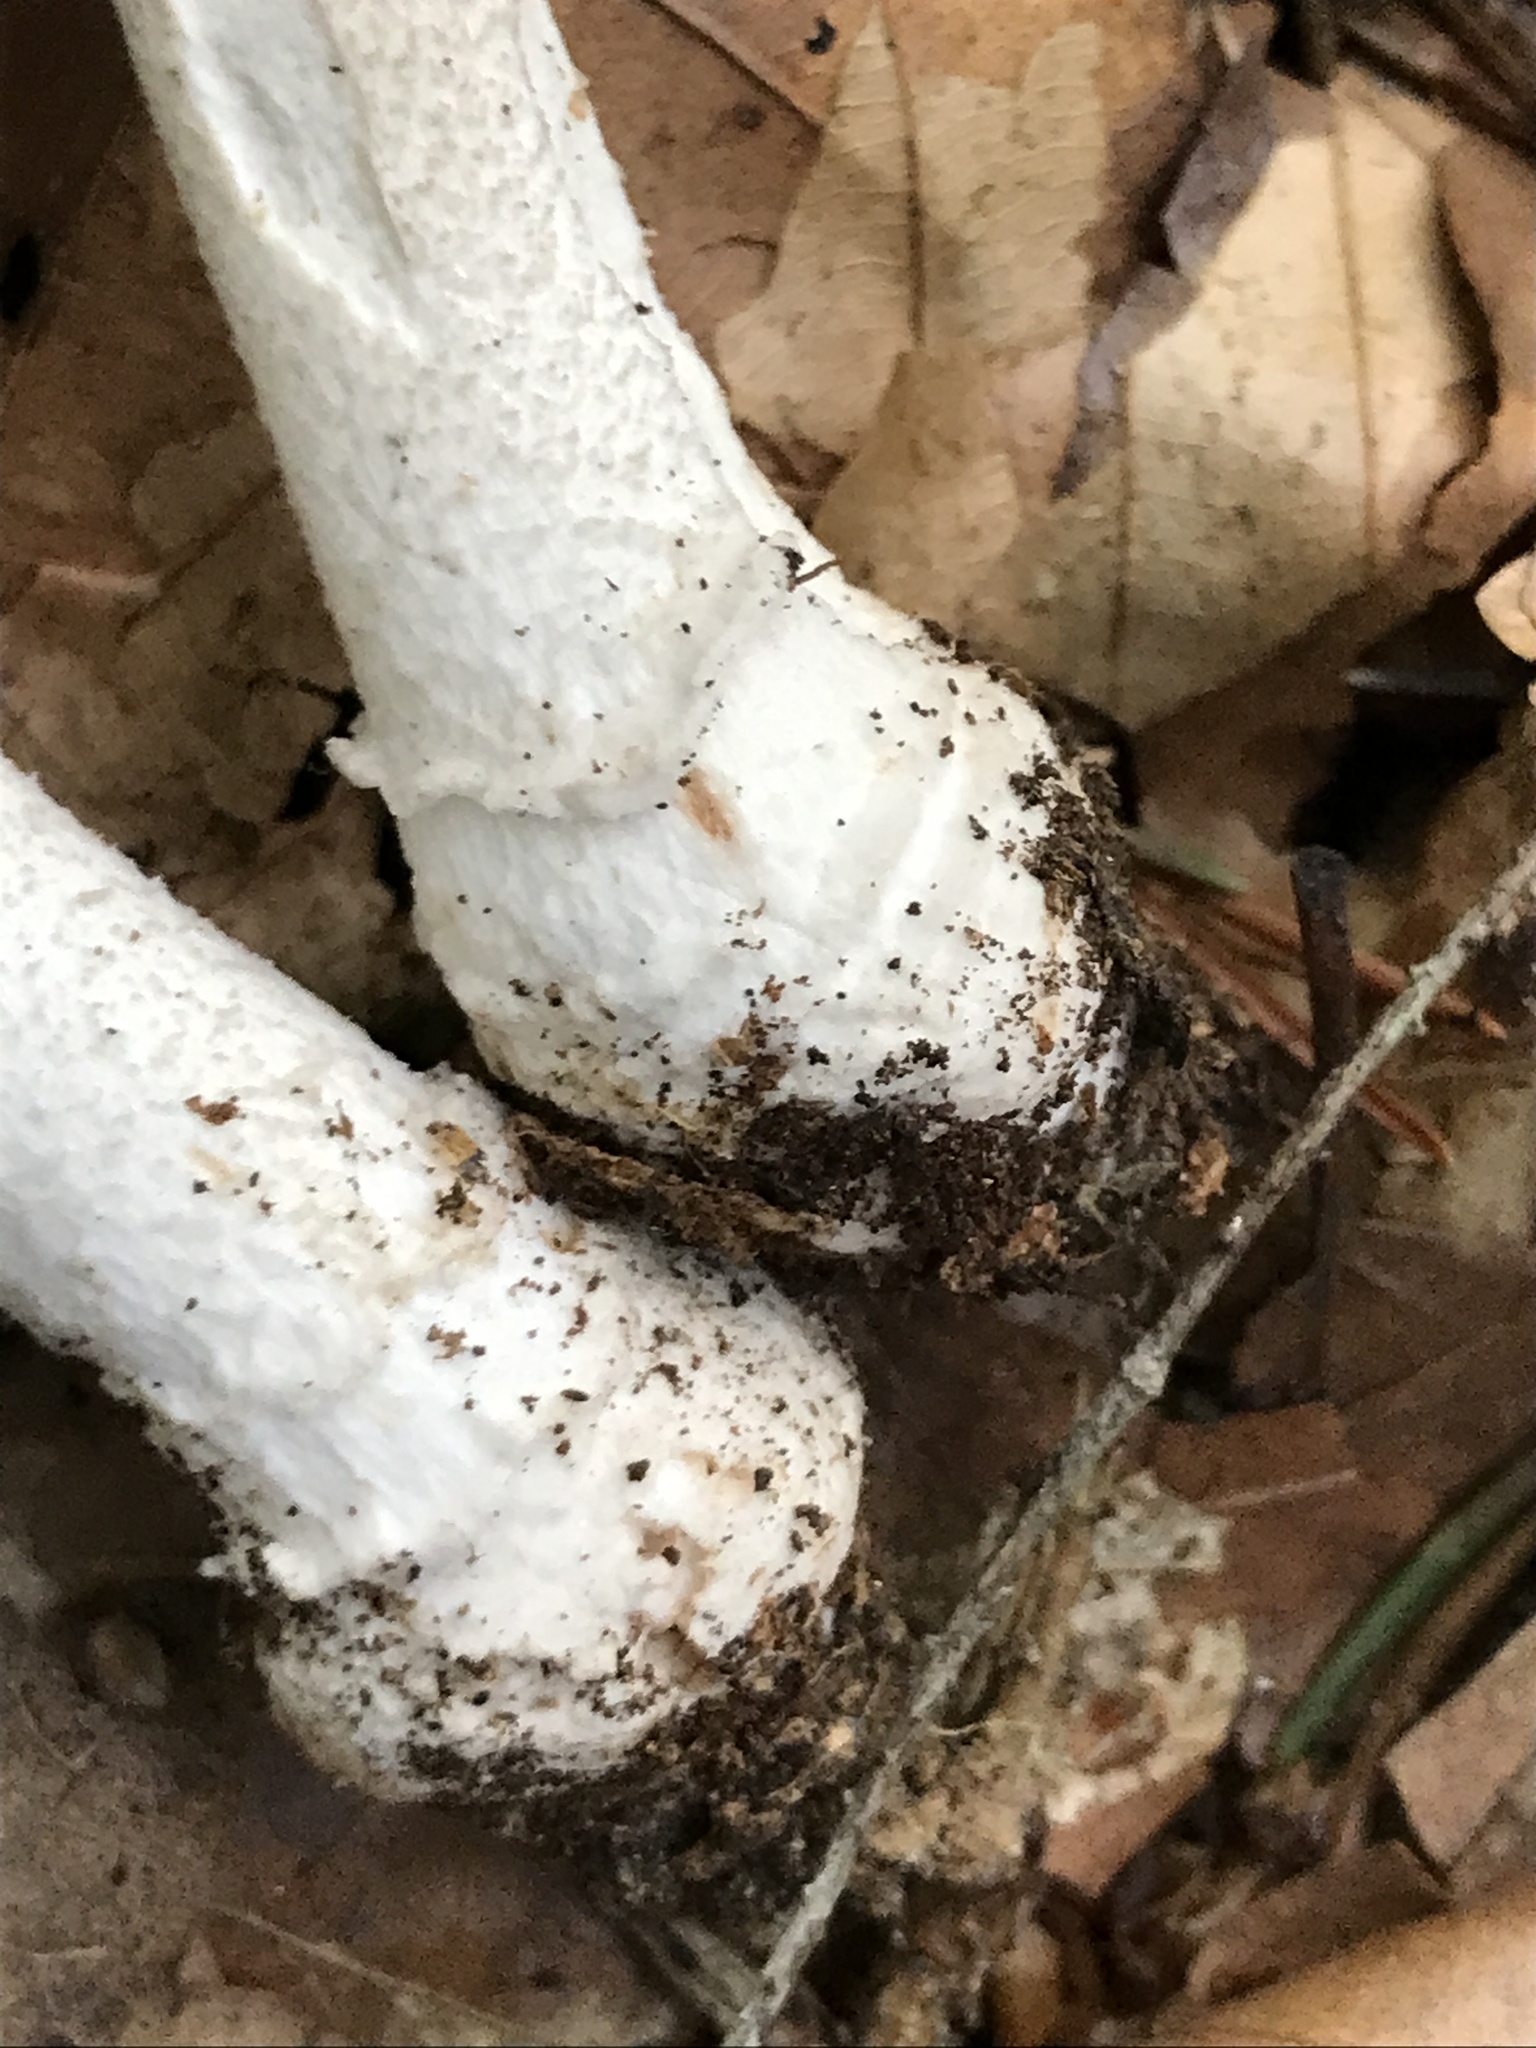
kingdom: Fungi
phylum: Basidiomycota
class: Agaricomycetes
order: Agaricales
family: Amanitaceae
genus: Amanita
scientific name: Amanita excelsa
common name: European false blusher
